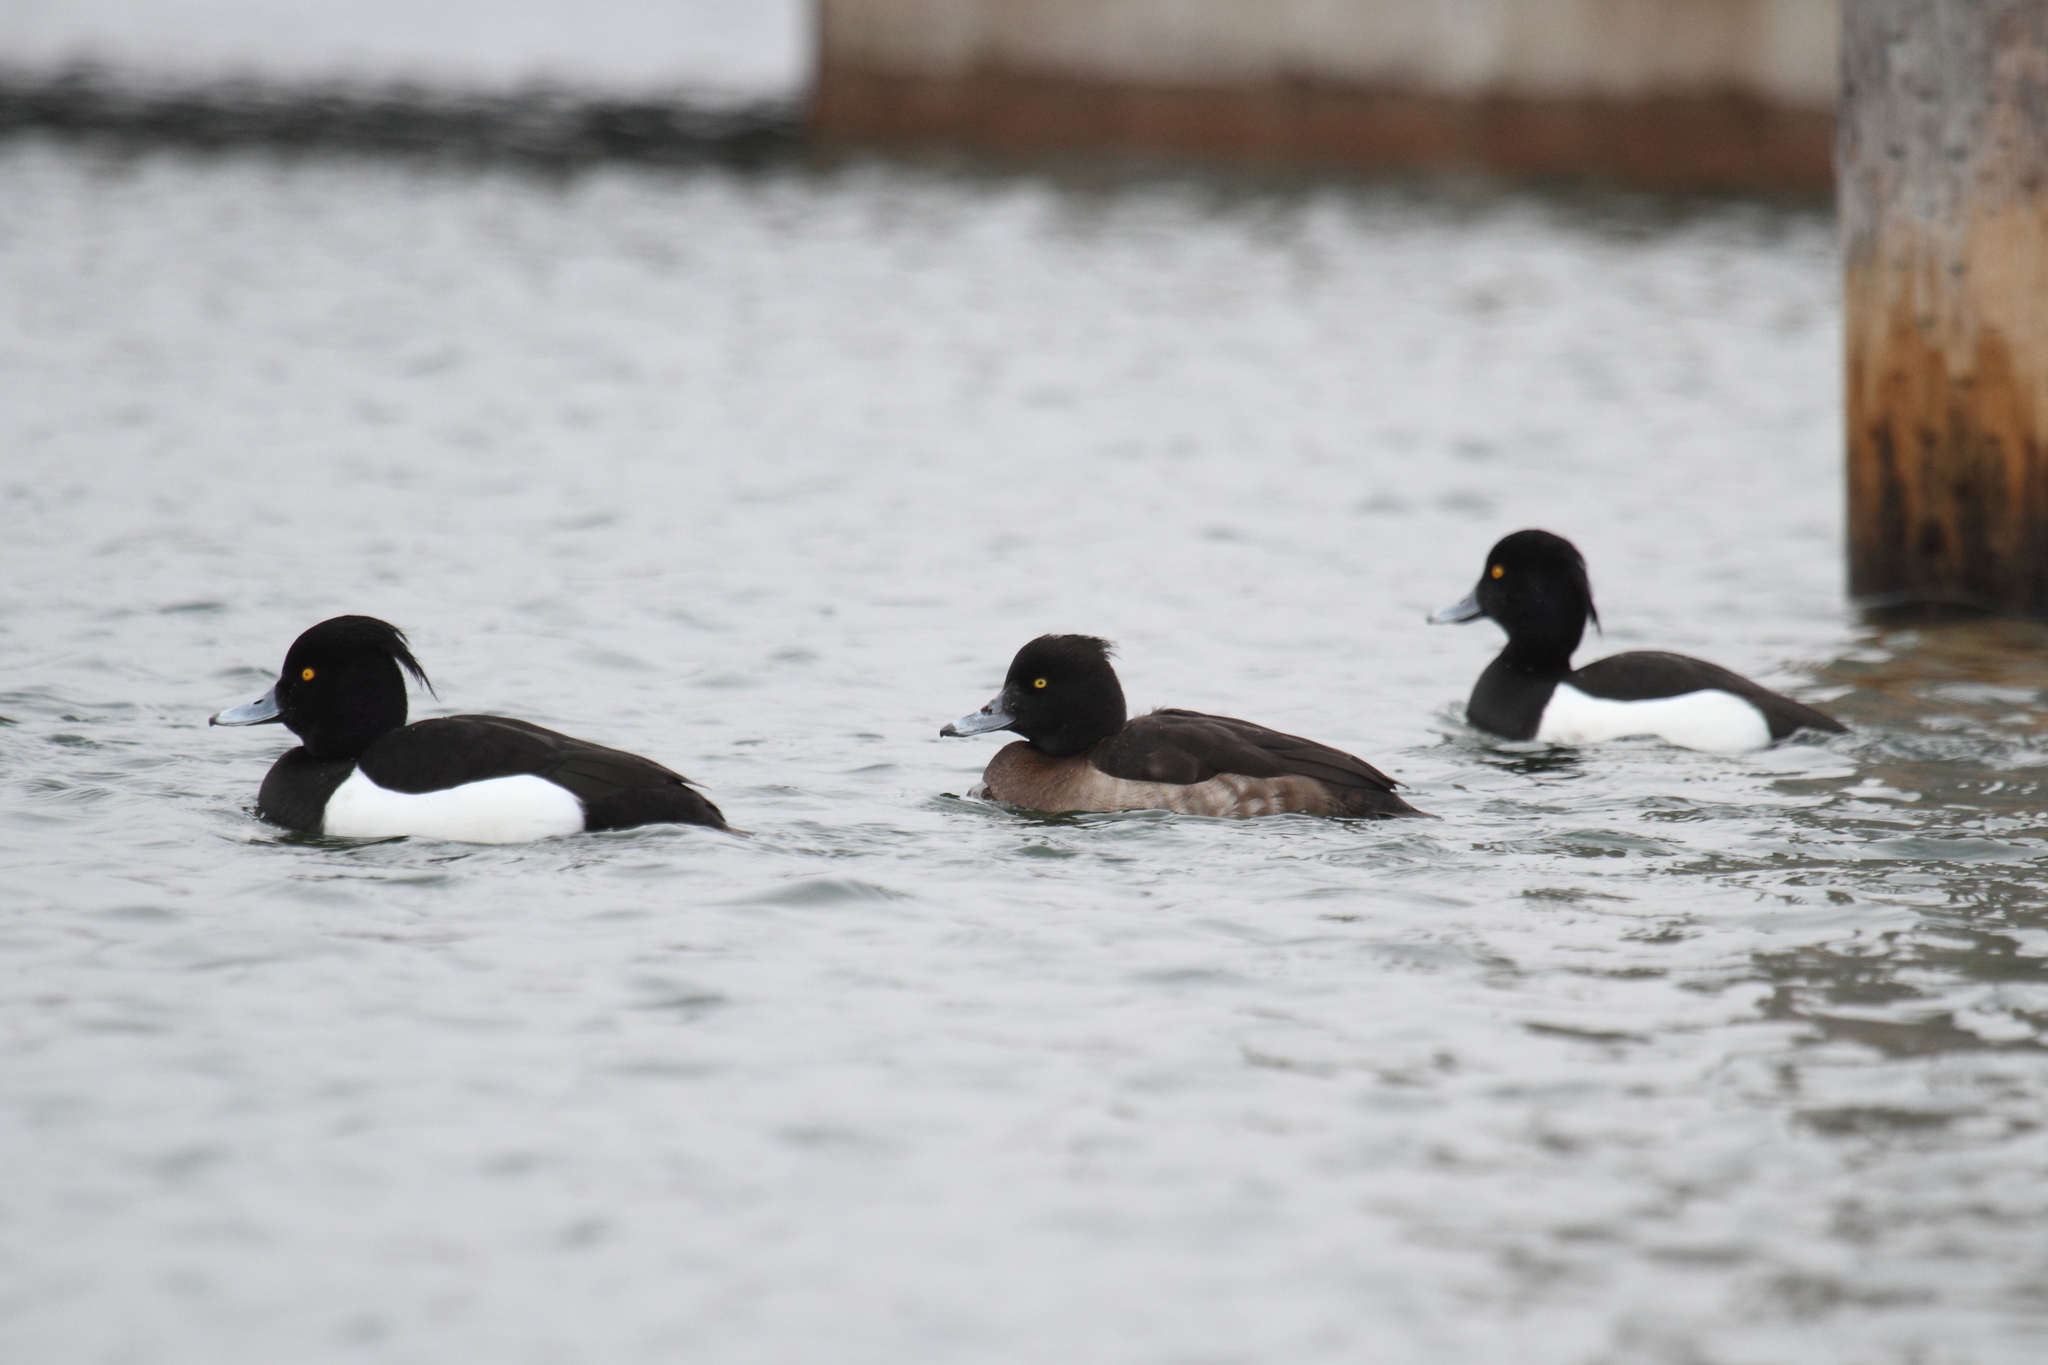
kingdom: Animalia
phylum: Chordata
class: Aves
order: Anseriformes
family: Anatidae
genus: Aythya
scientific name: Aythya fuligula
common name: Tufted duck
